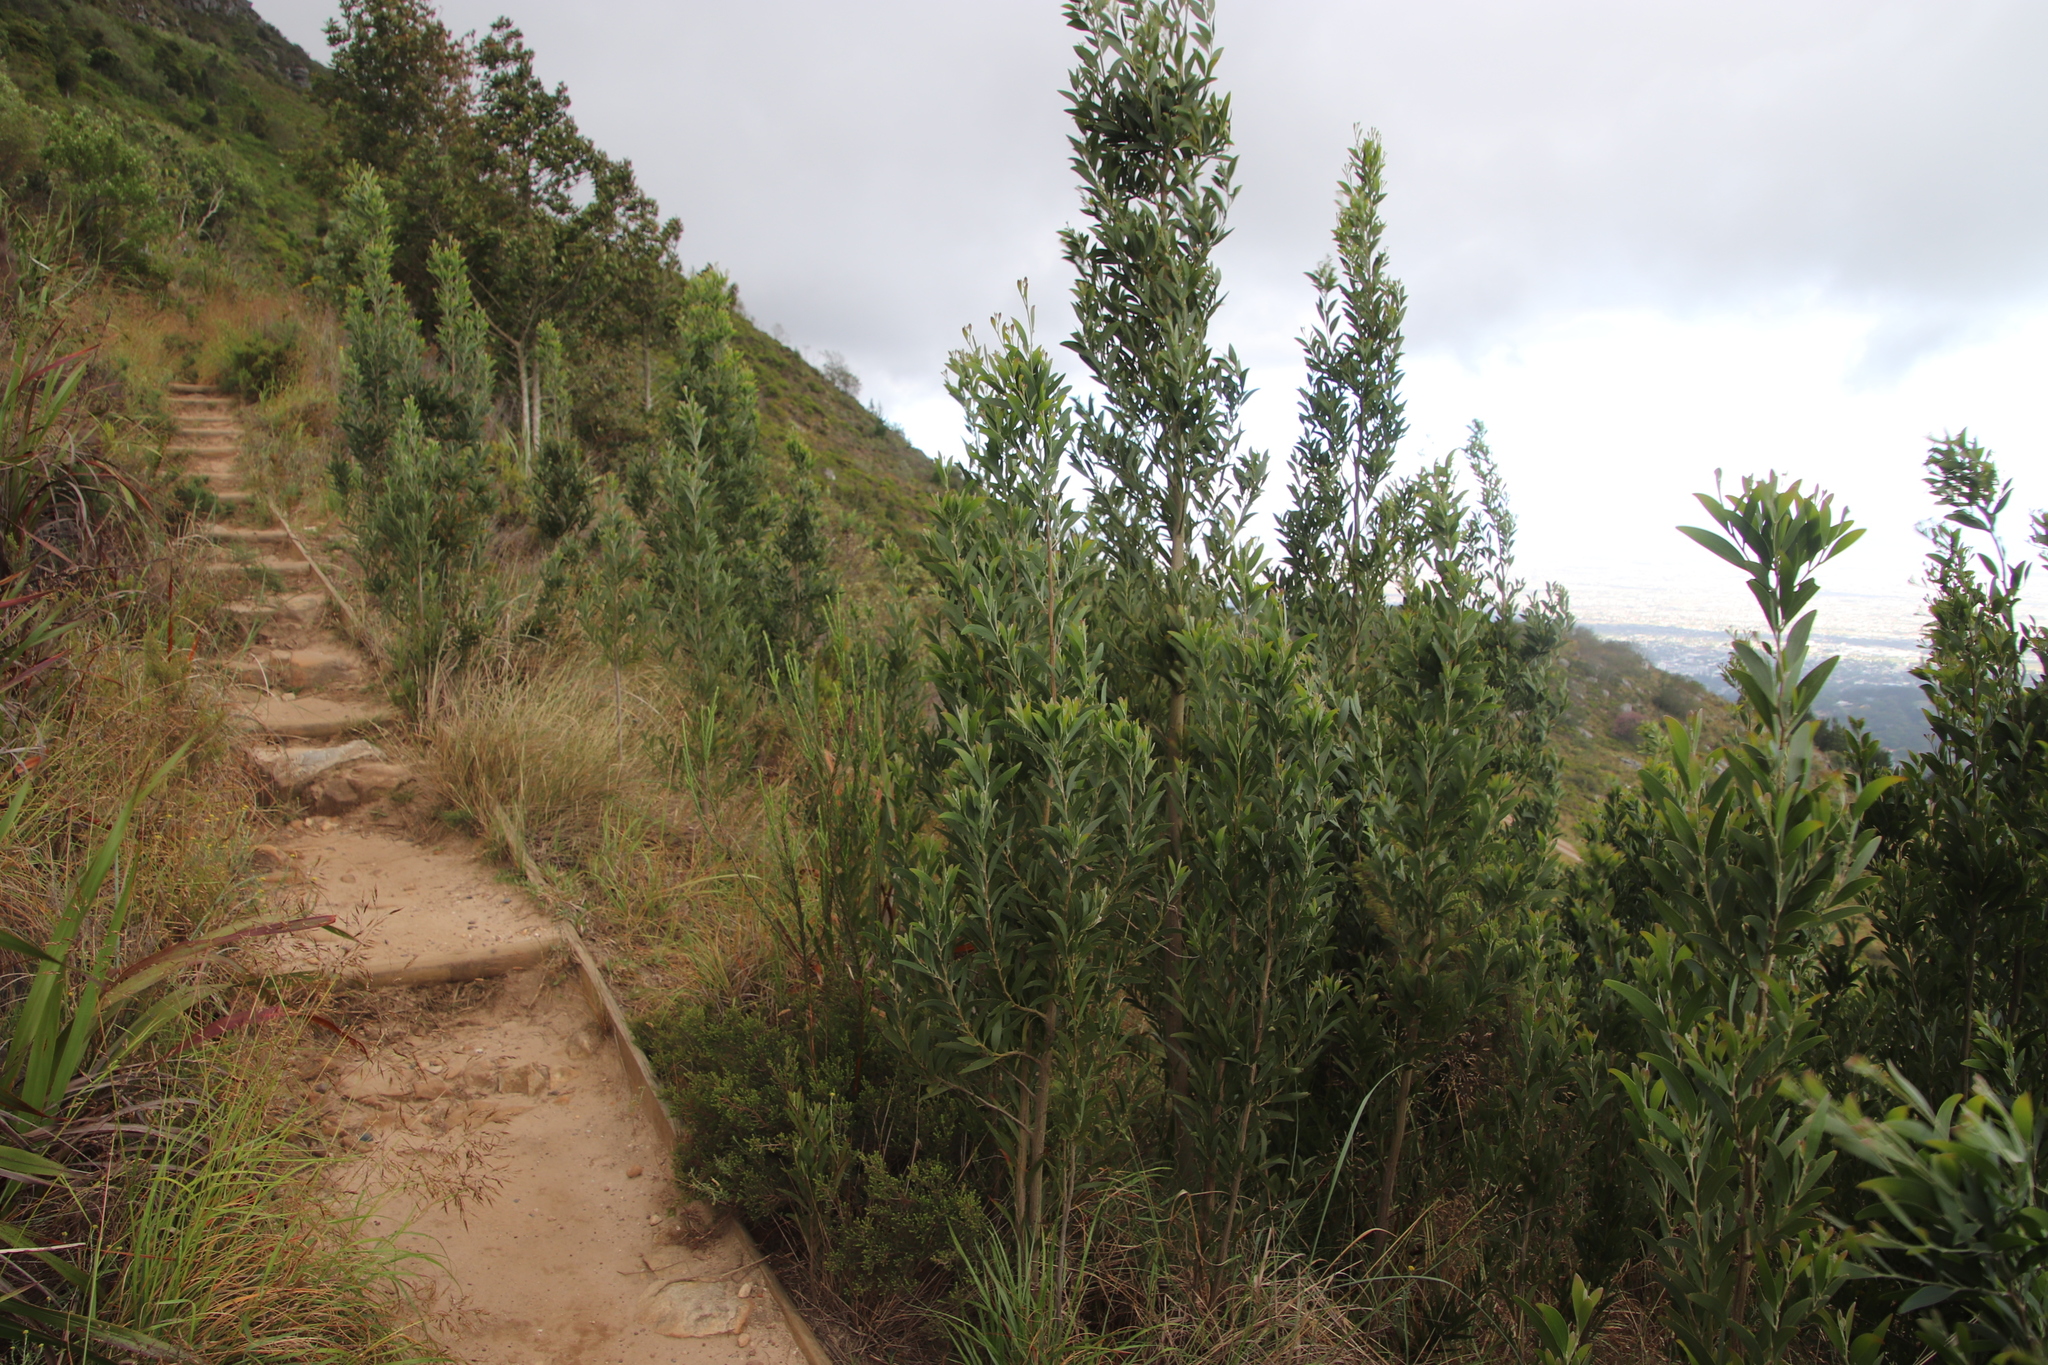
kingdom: Plantae
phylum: Tracheophyta
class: Magnoliopsida
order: Fabales
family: Fabaceae
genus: Acacia
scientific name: Acacia melanoxylon
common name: Blackwood
